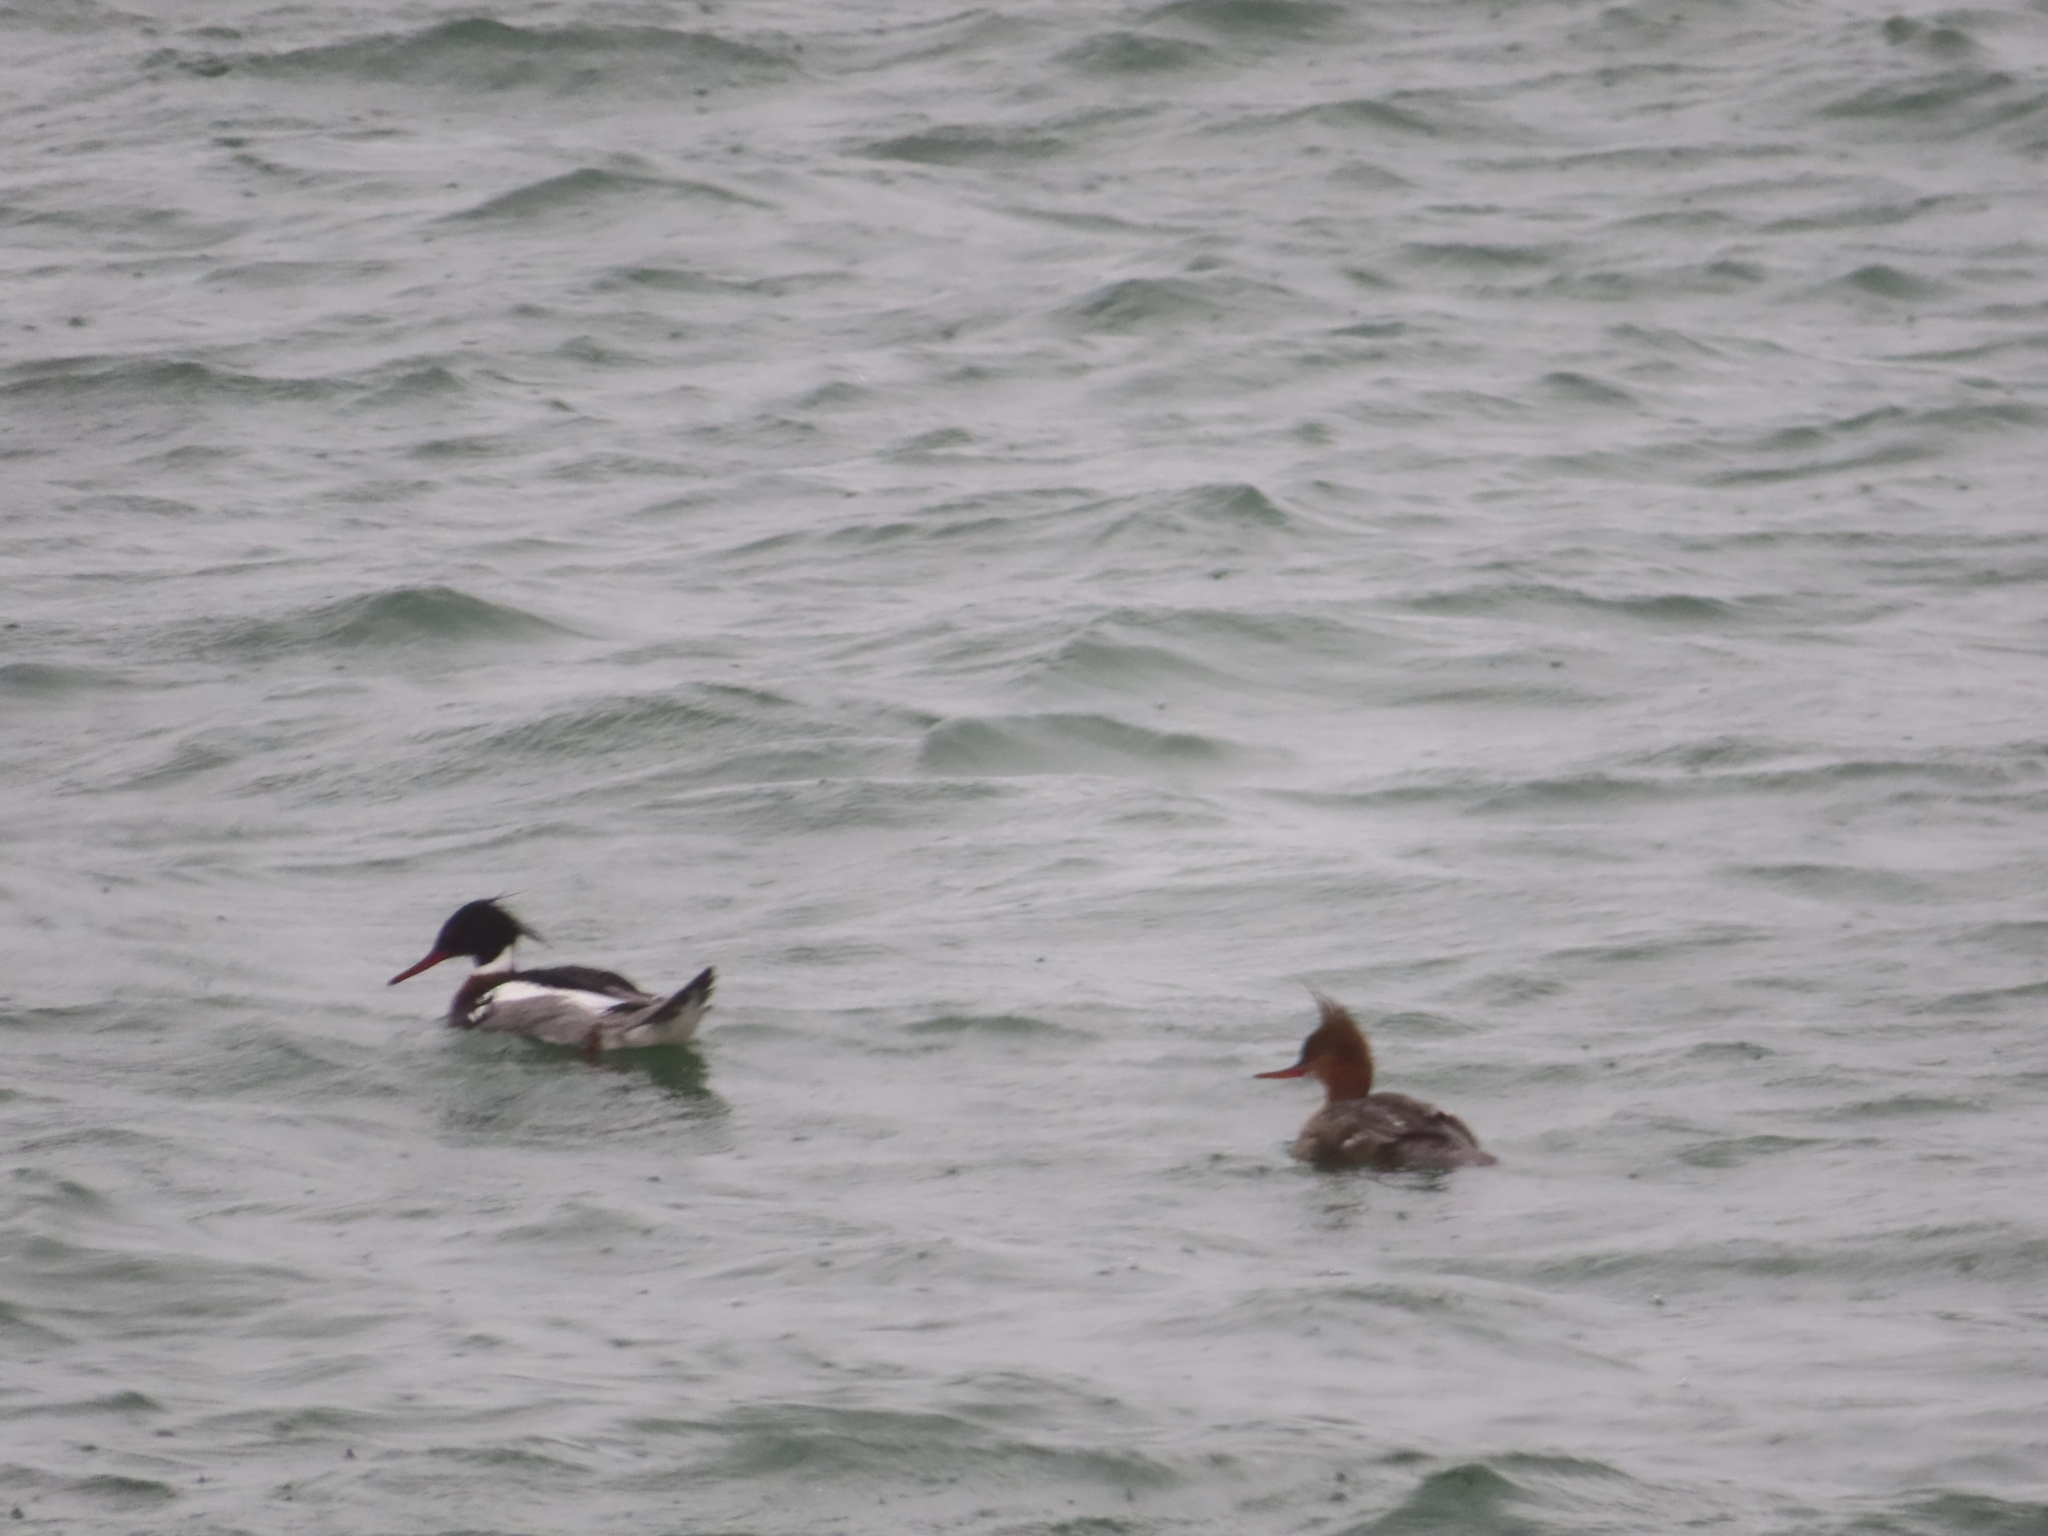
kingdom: Animalia
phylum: Chordata
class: Aves
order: Anseriformes
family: Anatidae
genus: Mergus
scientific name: Mergus serrator
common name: Red-breasted merganser
